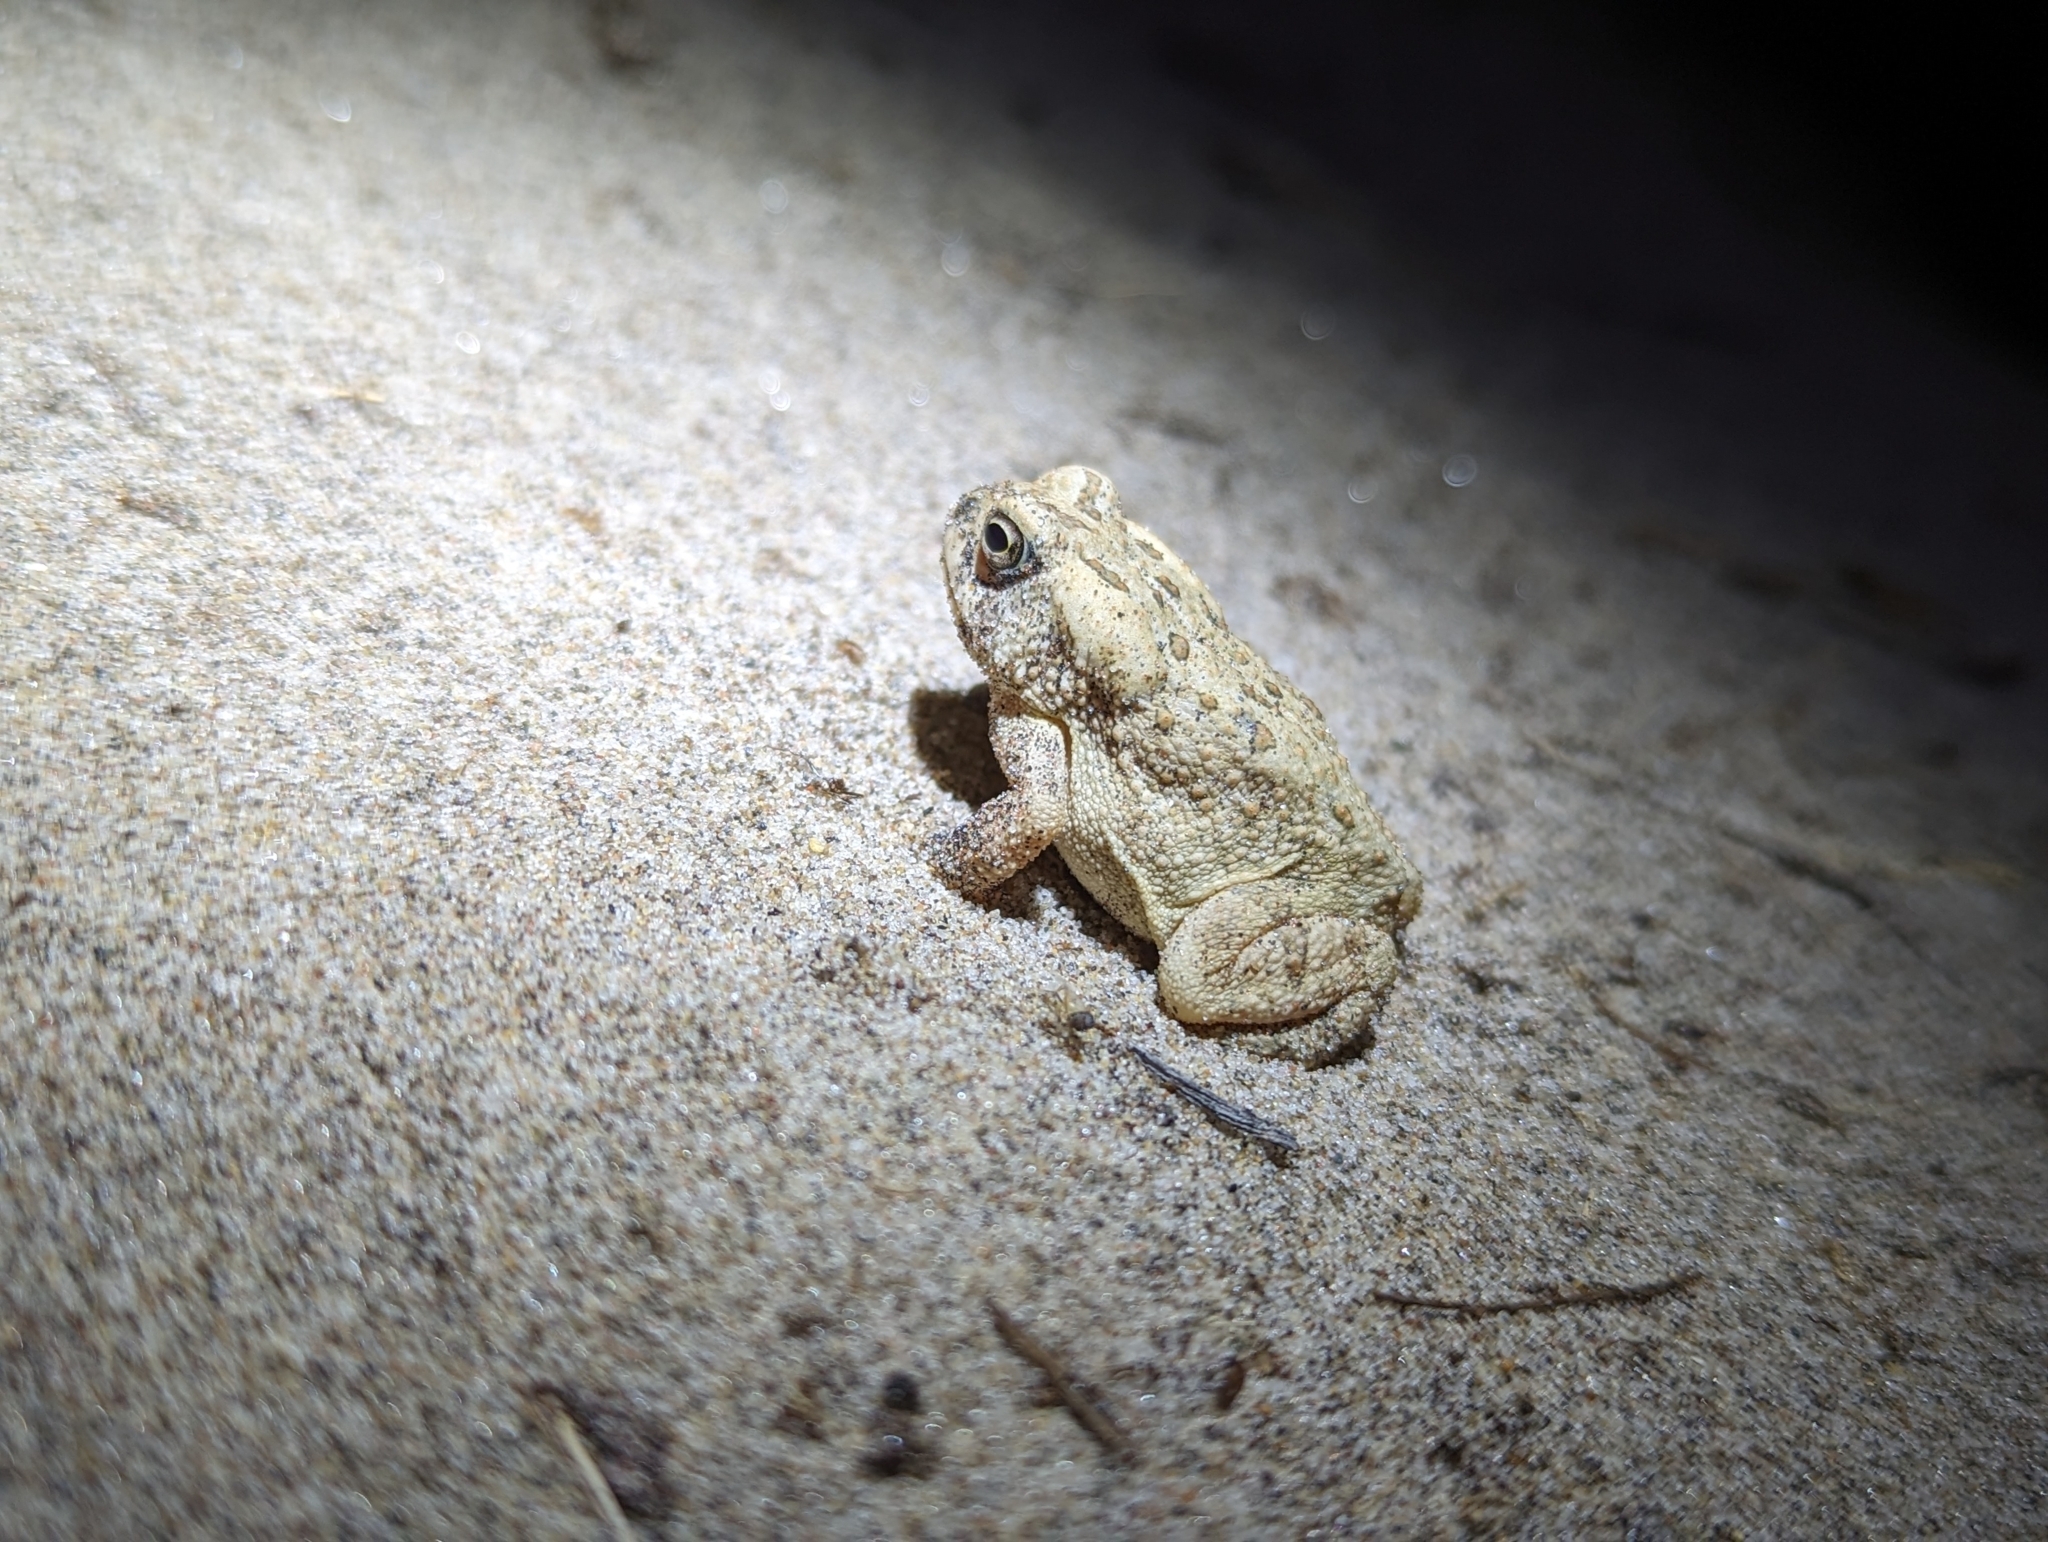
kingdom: Animalia
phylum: Chordata
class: Amphibia
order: Anura
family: Bufonidae
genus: Anaxyrus
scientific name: Anaxyrus fowleri
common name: Fowler's toad
